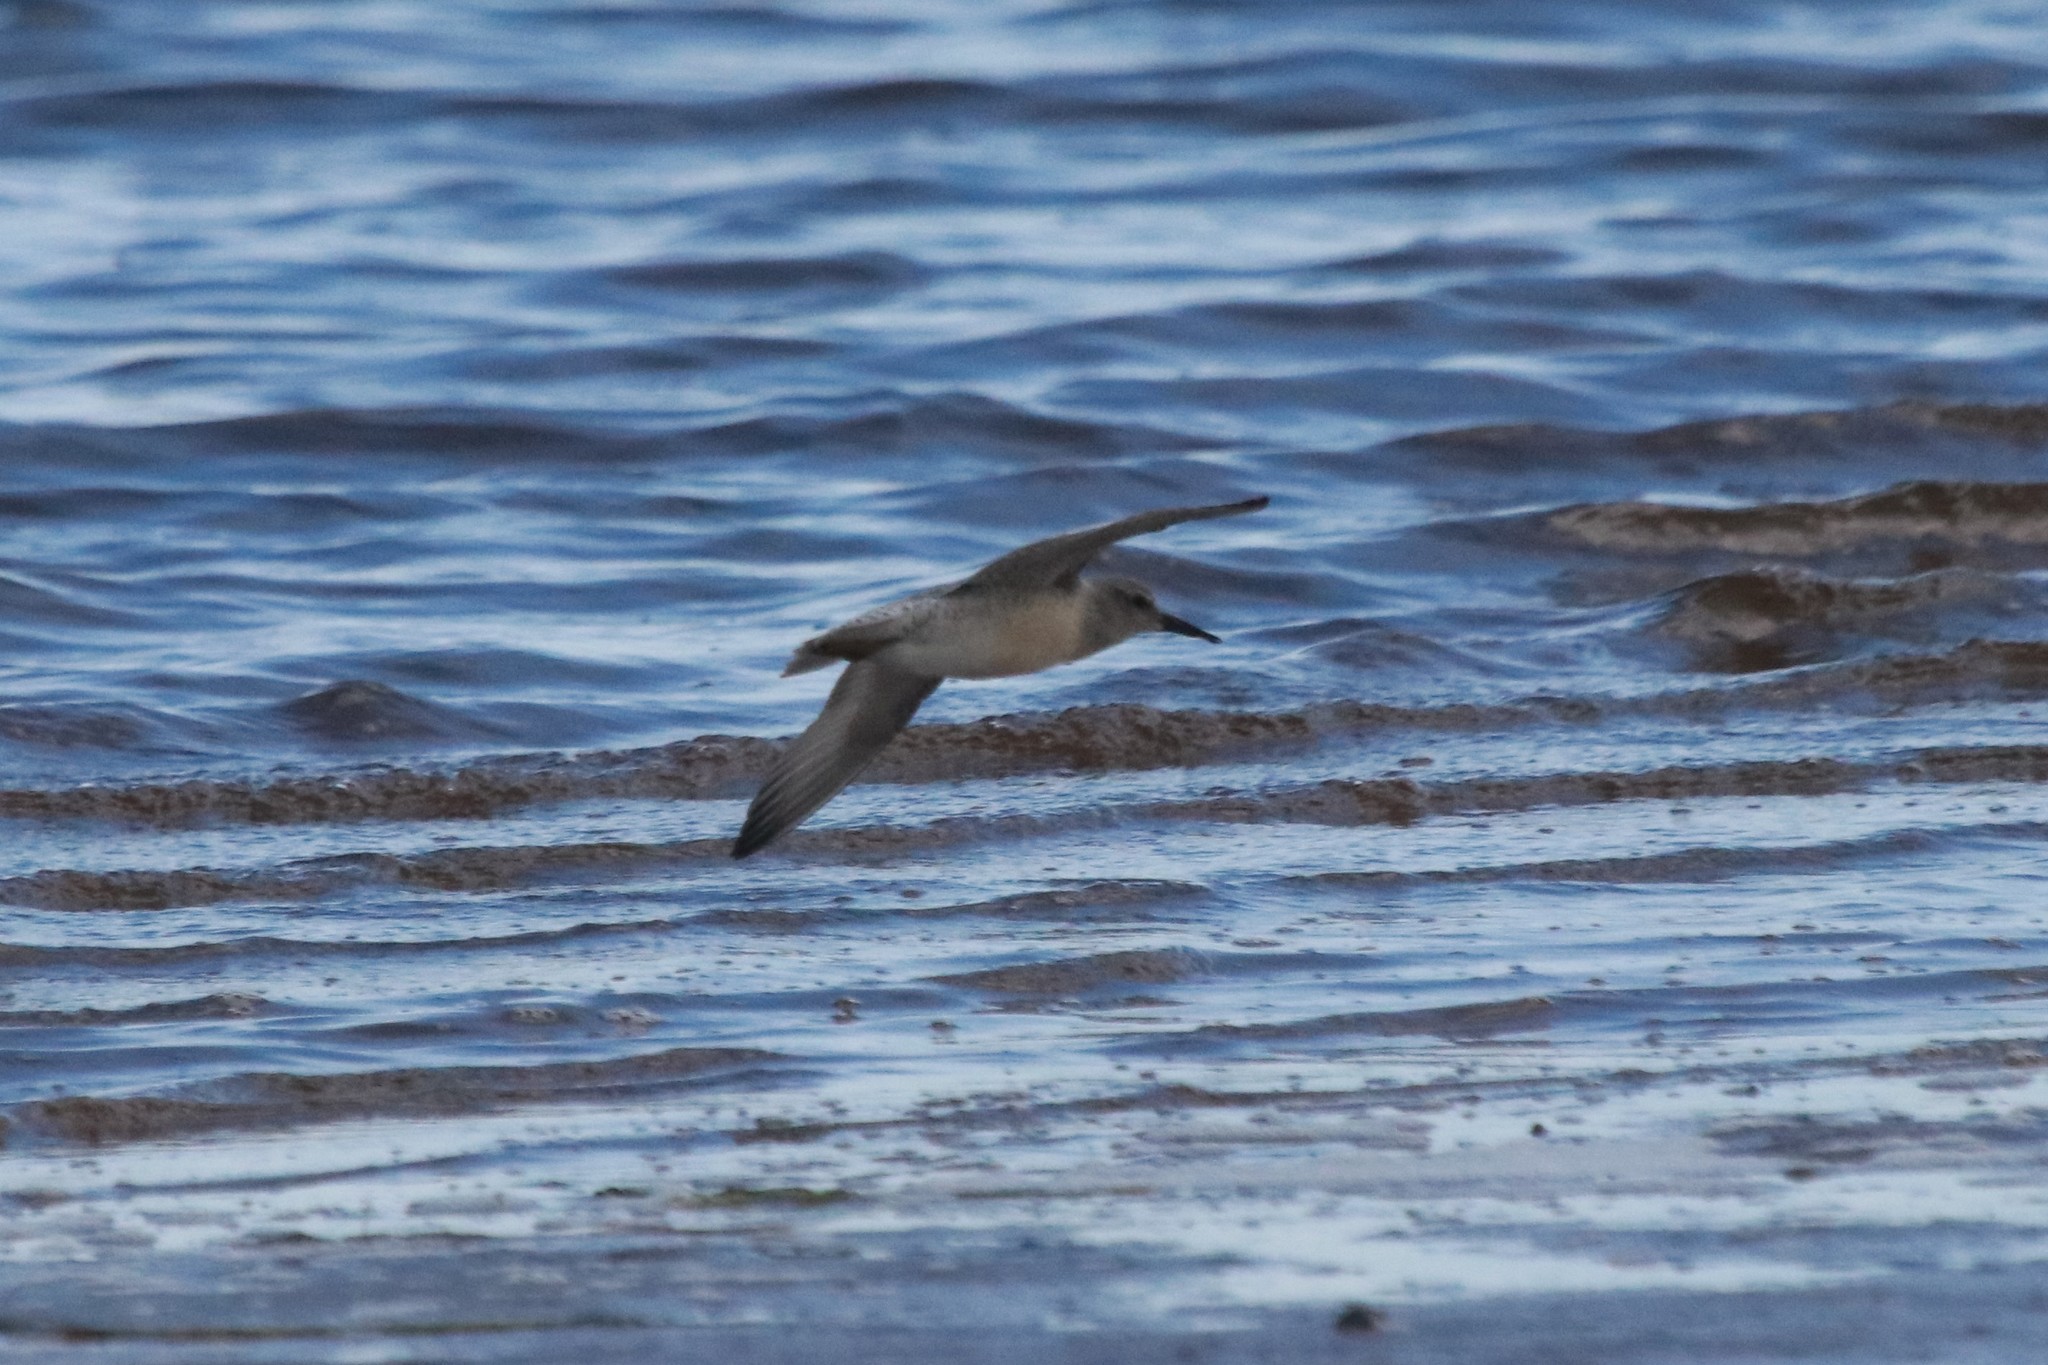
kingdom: Animalia
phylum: Chordata
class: Aves
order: Charadriiformes
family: Scolopacidae
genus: Calidris
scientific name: Calidris canutus
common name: Red knot
